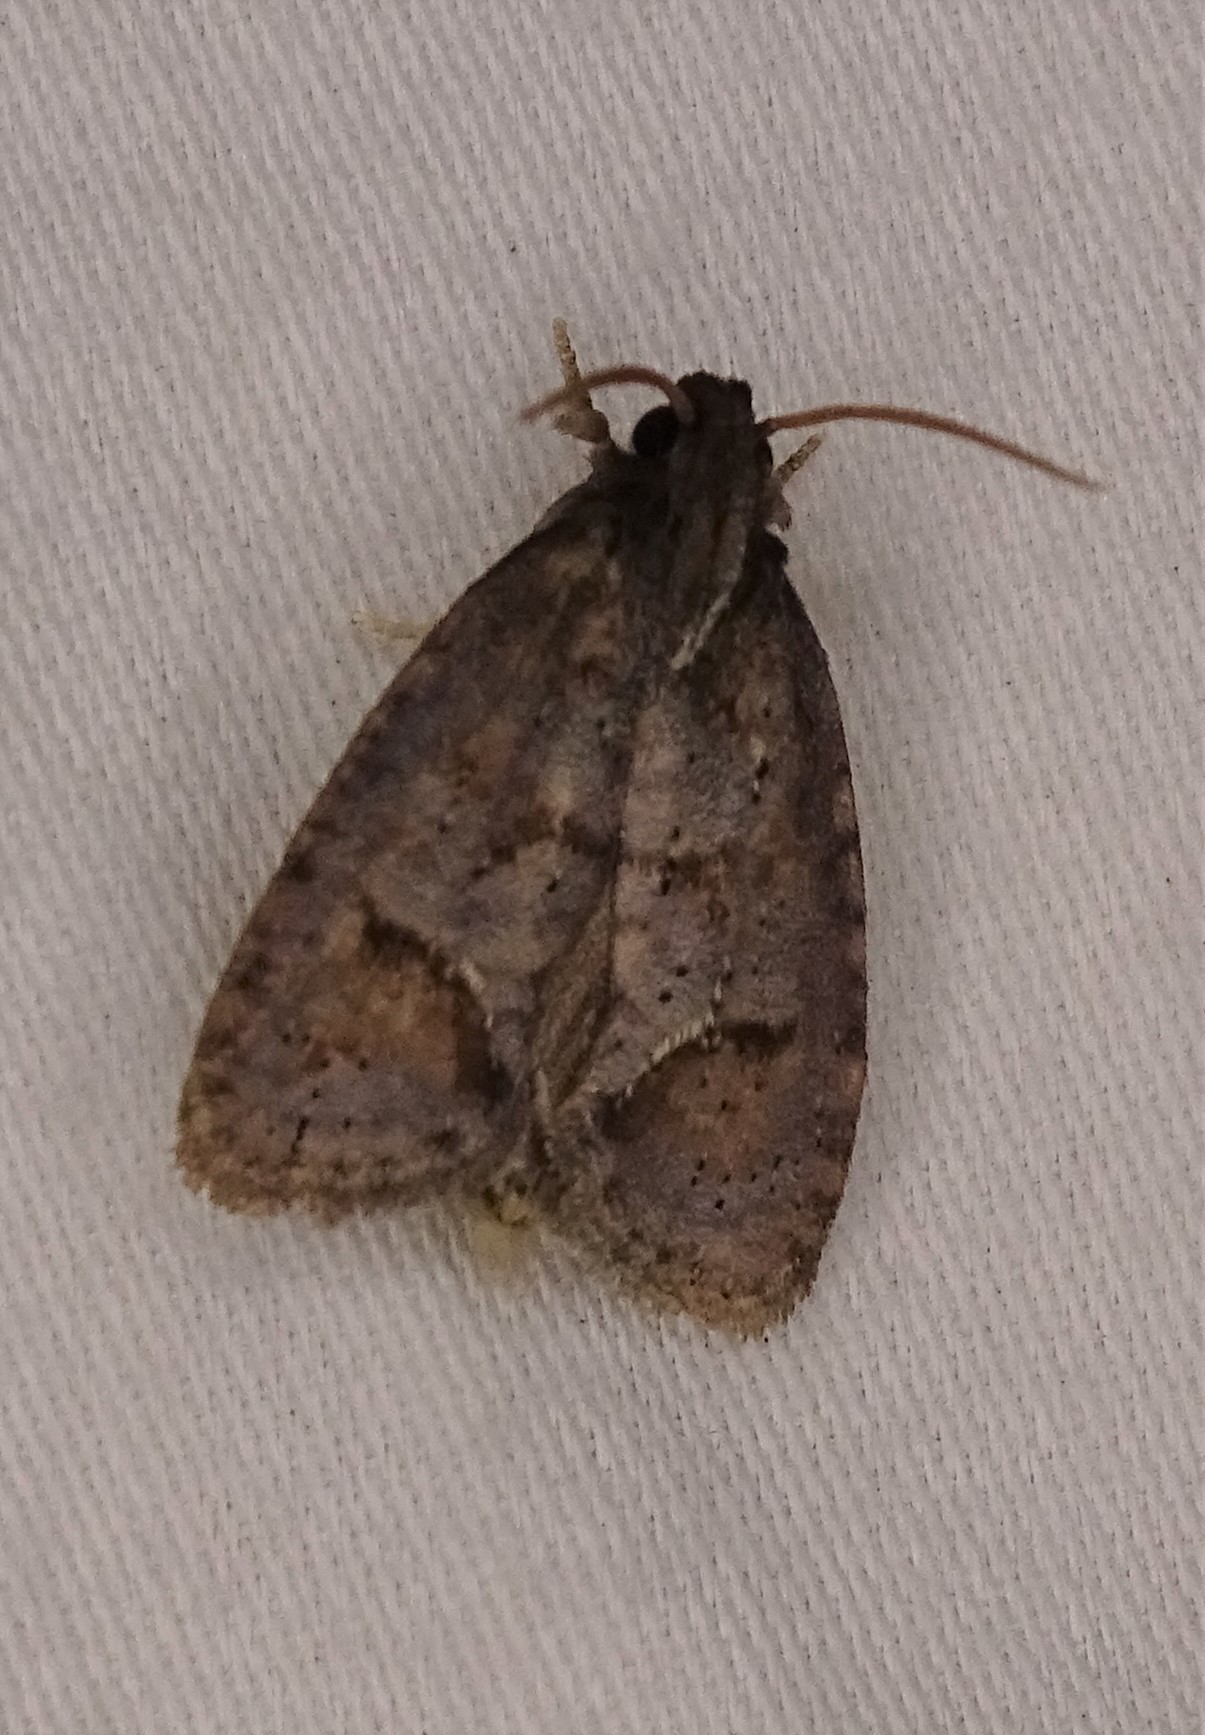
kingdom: Animalia
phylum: Arthropoda
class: Insecta
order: Lepidoptera
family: Tineidae
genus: Acrolophus
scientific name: Acrolophus texanella
